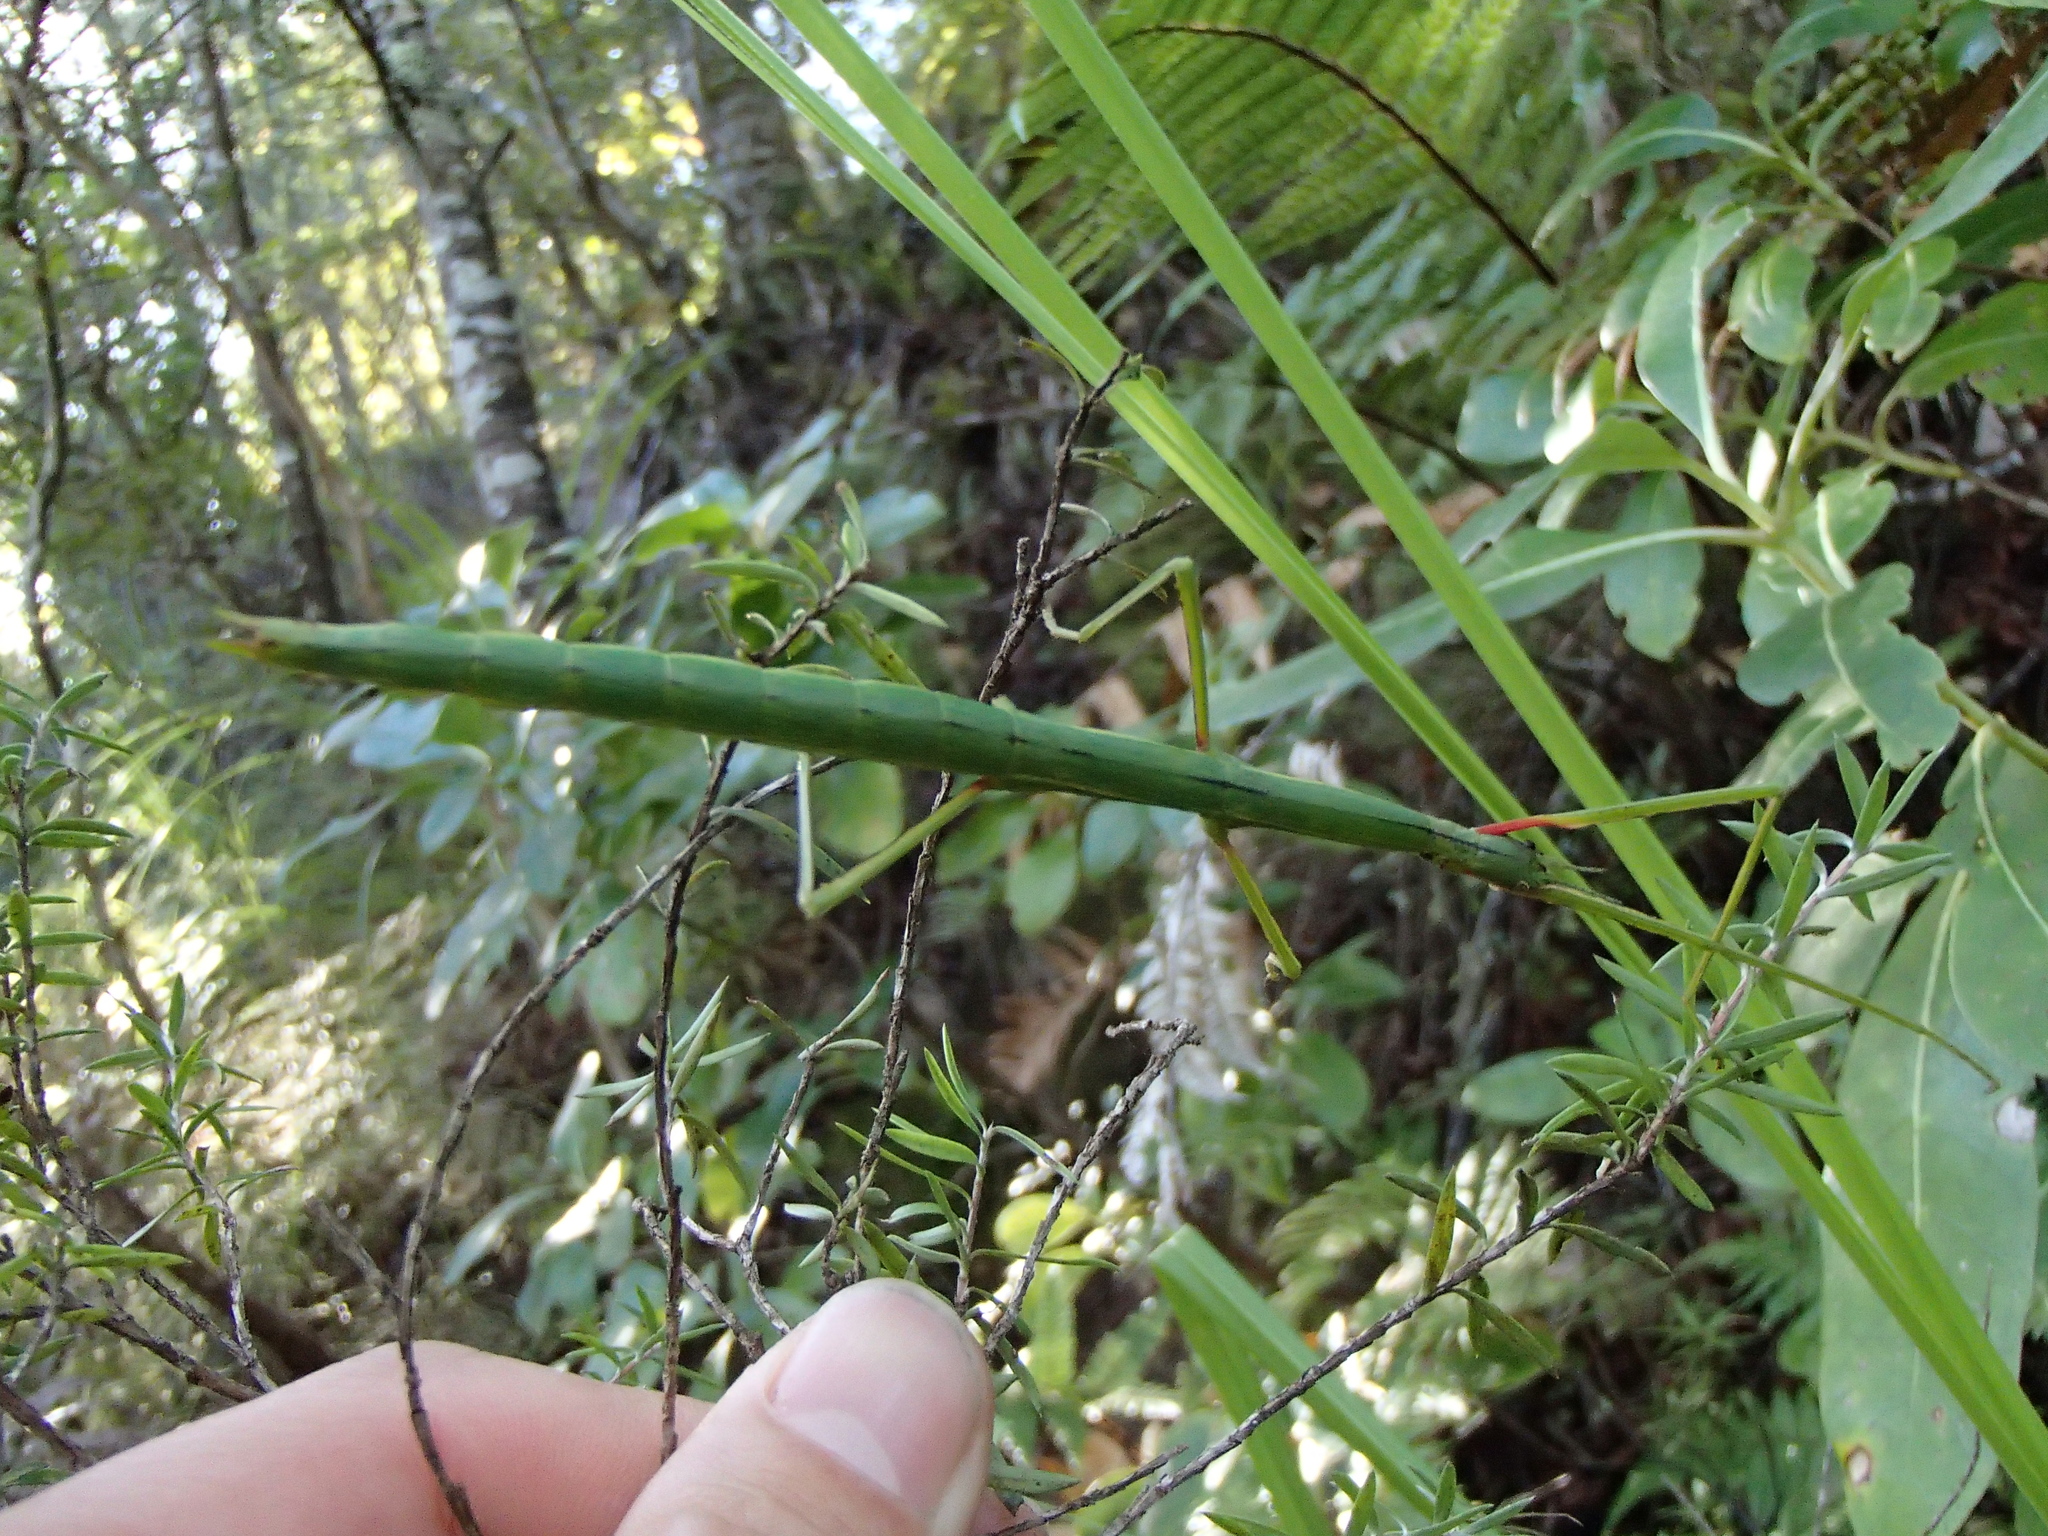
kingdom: Animalia
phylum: Arthropoda
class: Insecta
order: Phasmida
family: Phasmatidae
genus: Clitarchus
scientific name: Clitarchus hookeri
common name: Smooth stick insect
